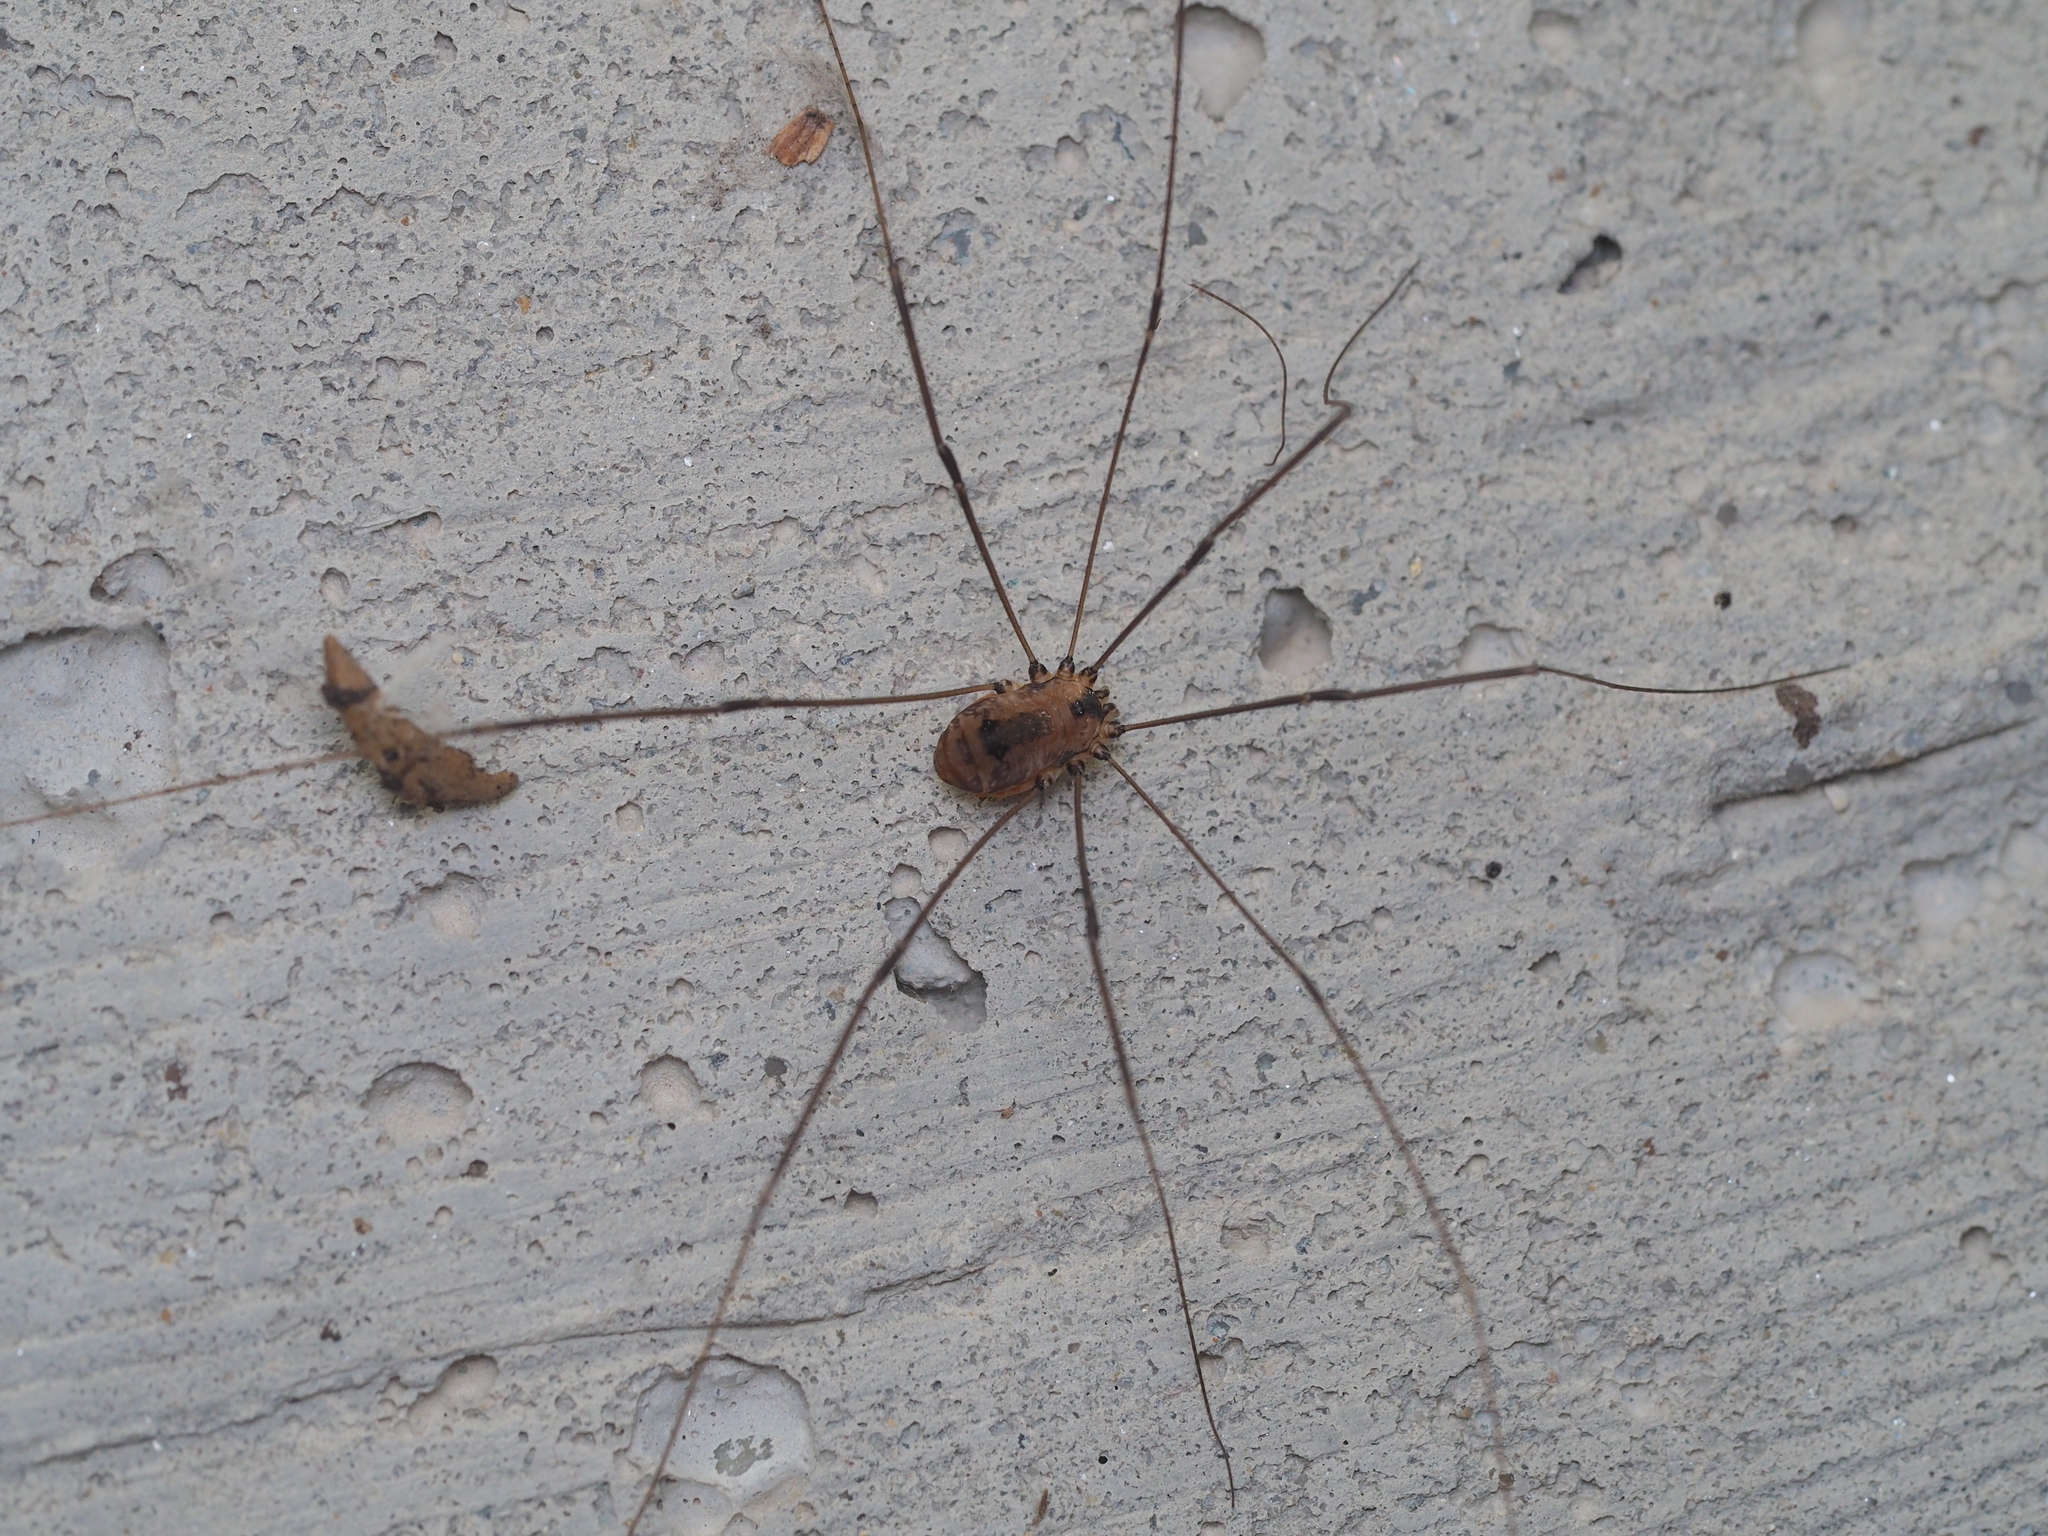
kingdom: Animalia
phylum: Arthropoda
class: Arachnida
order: Opiliones
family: Sclerosomatidae
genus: Leiobunum
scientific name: Leiobunum rotundum
